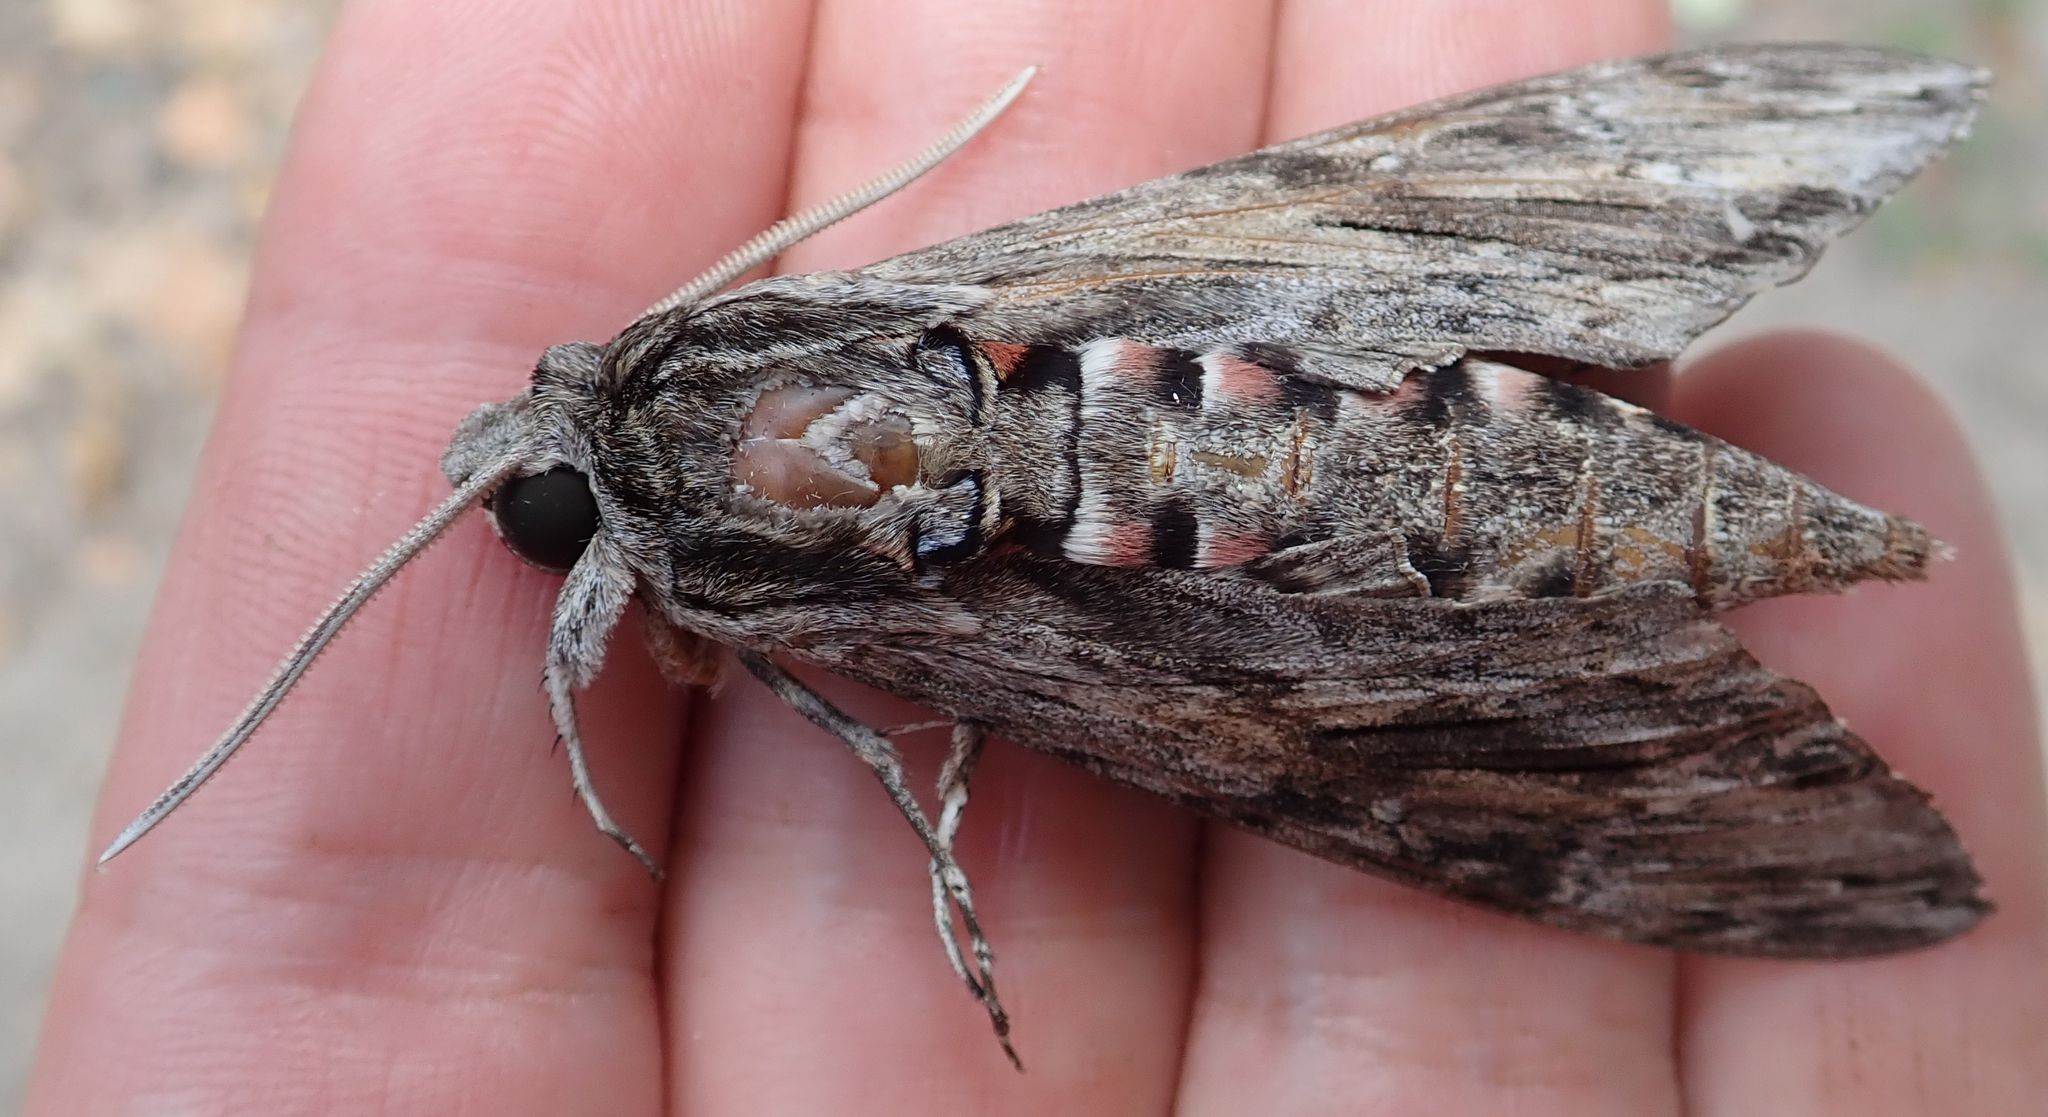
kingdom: Animalia
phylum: Arthropoda
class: Insecta
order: Lepidoptera
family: Sphingidae
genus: Agrius
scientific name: Agrius convolvuli
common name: Convolvulus hawkmoth
